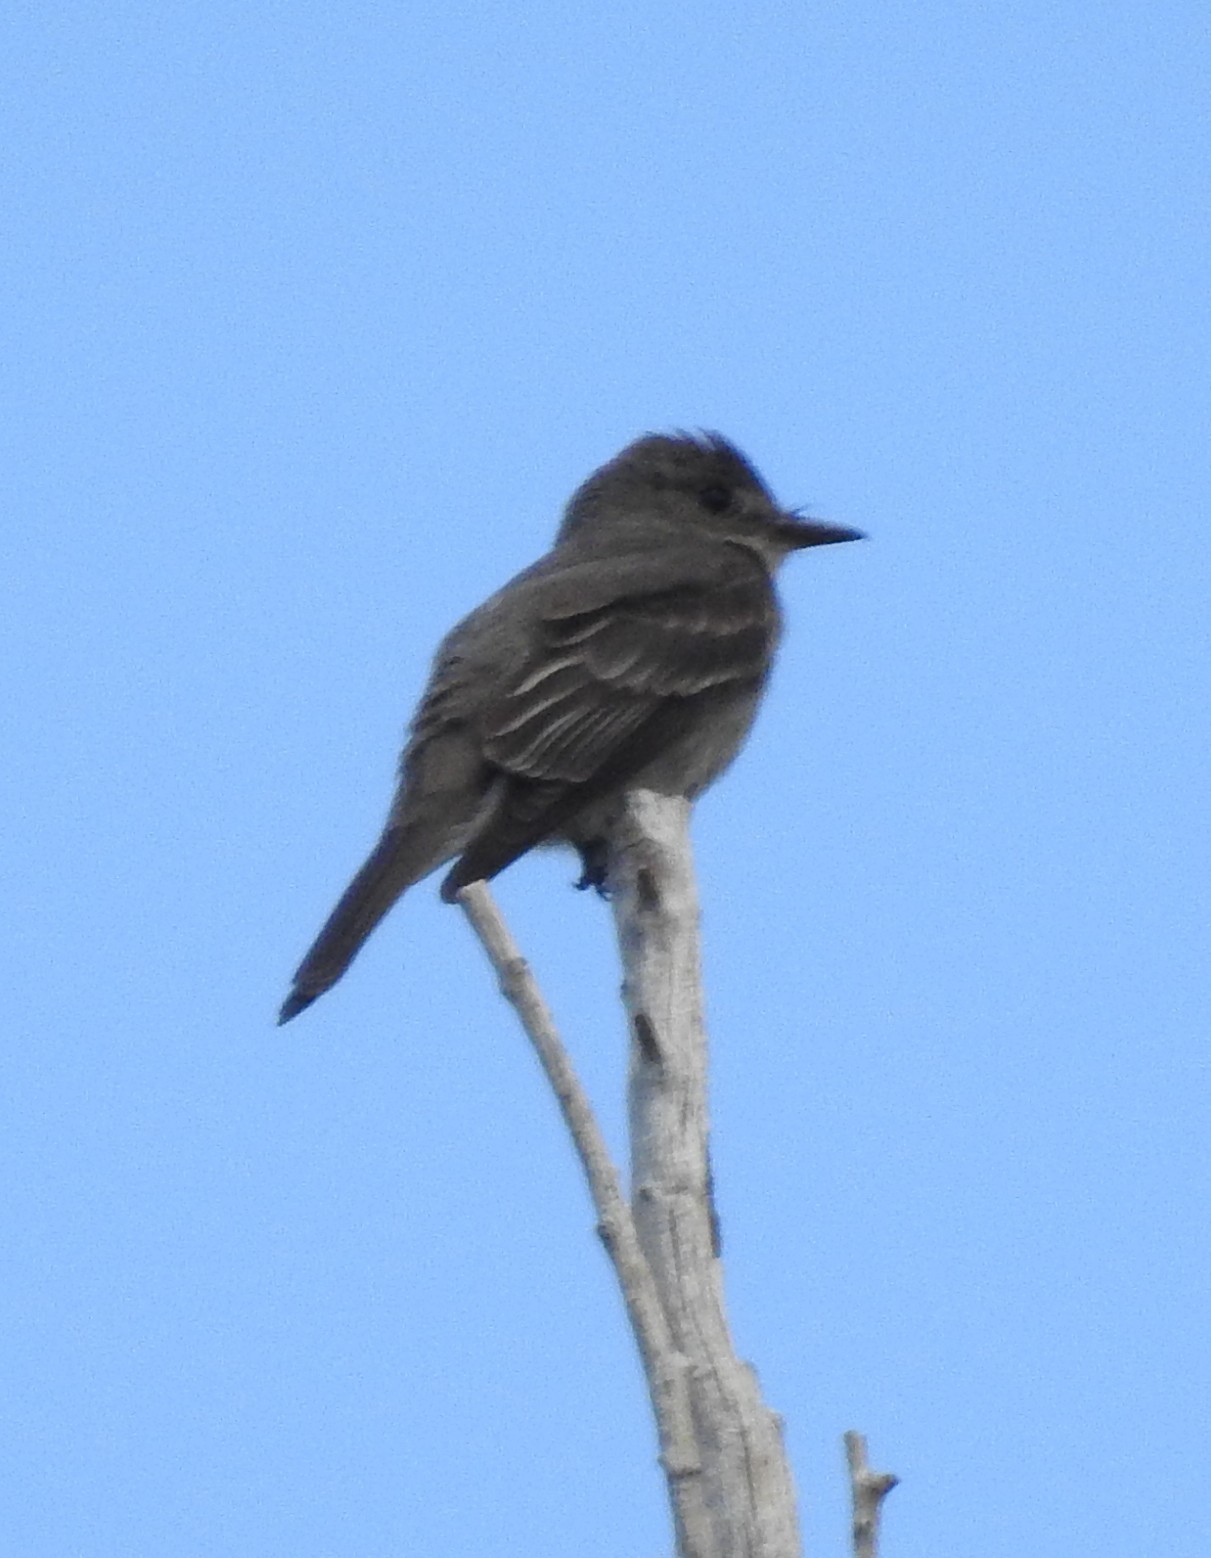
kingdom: Animalia
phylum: Chordata
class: Aves
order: Passeriformes
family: Tyrannidae
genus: Contopus
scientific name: Contopus sordidulus
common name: Western wood-pewee
